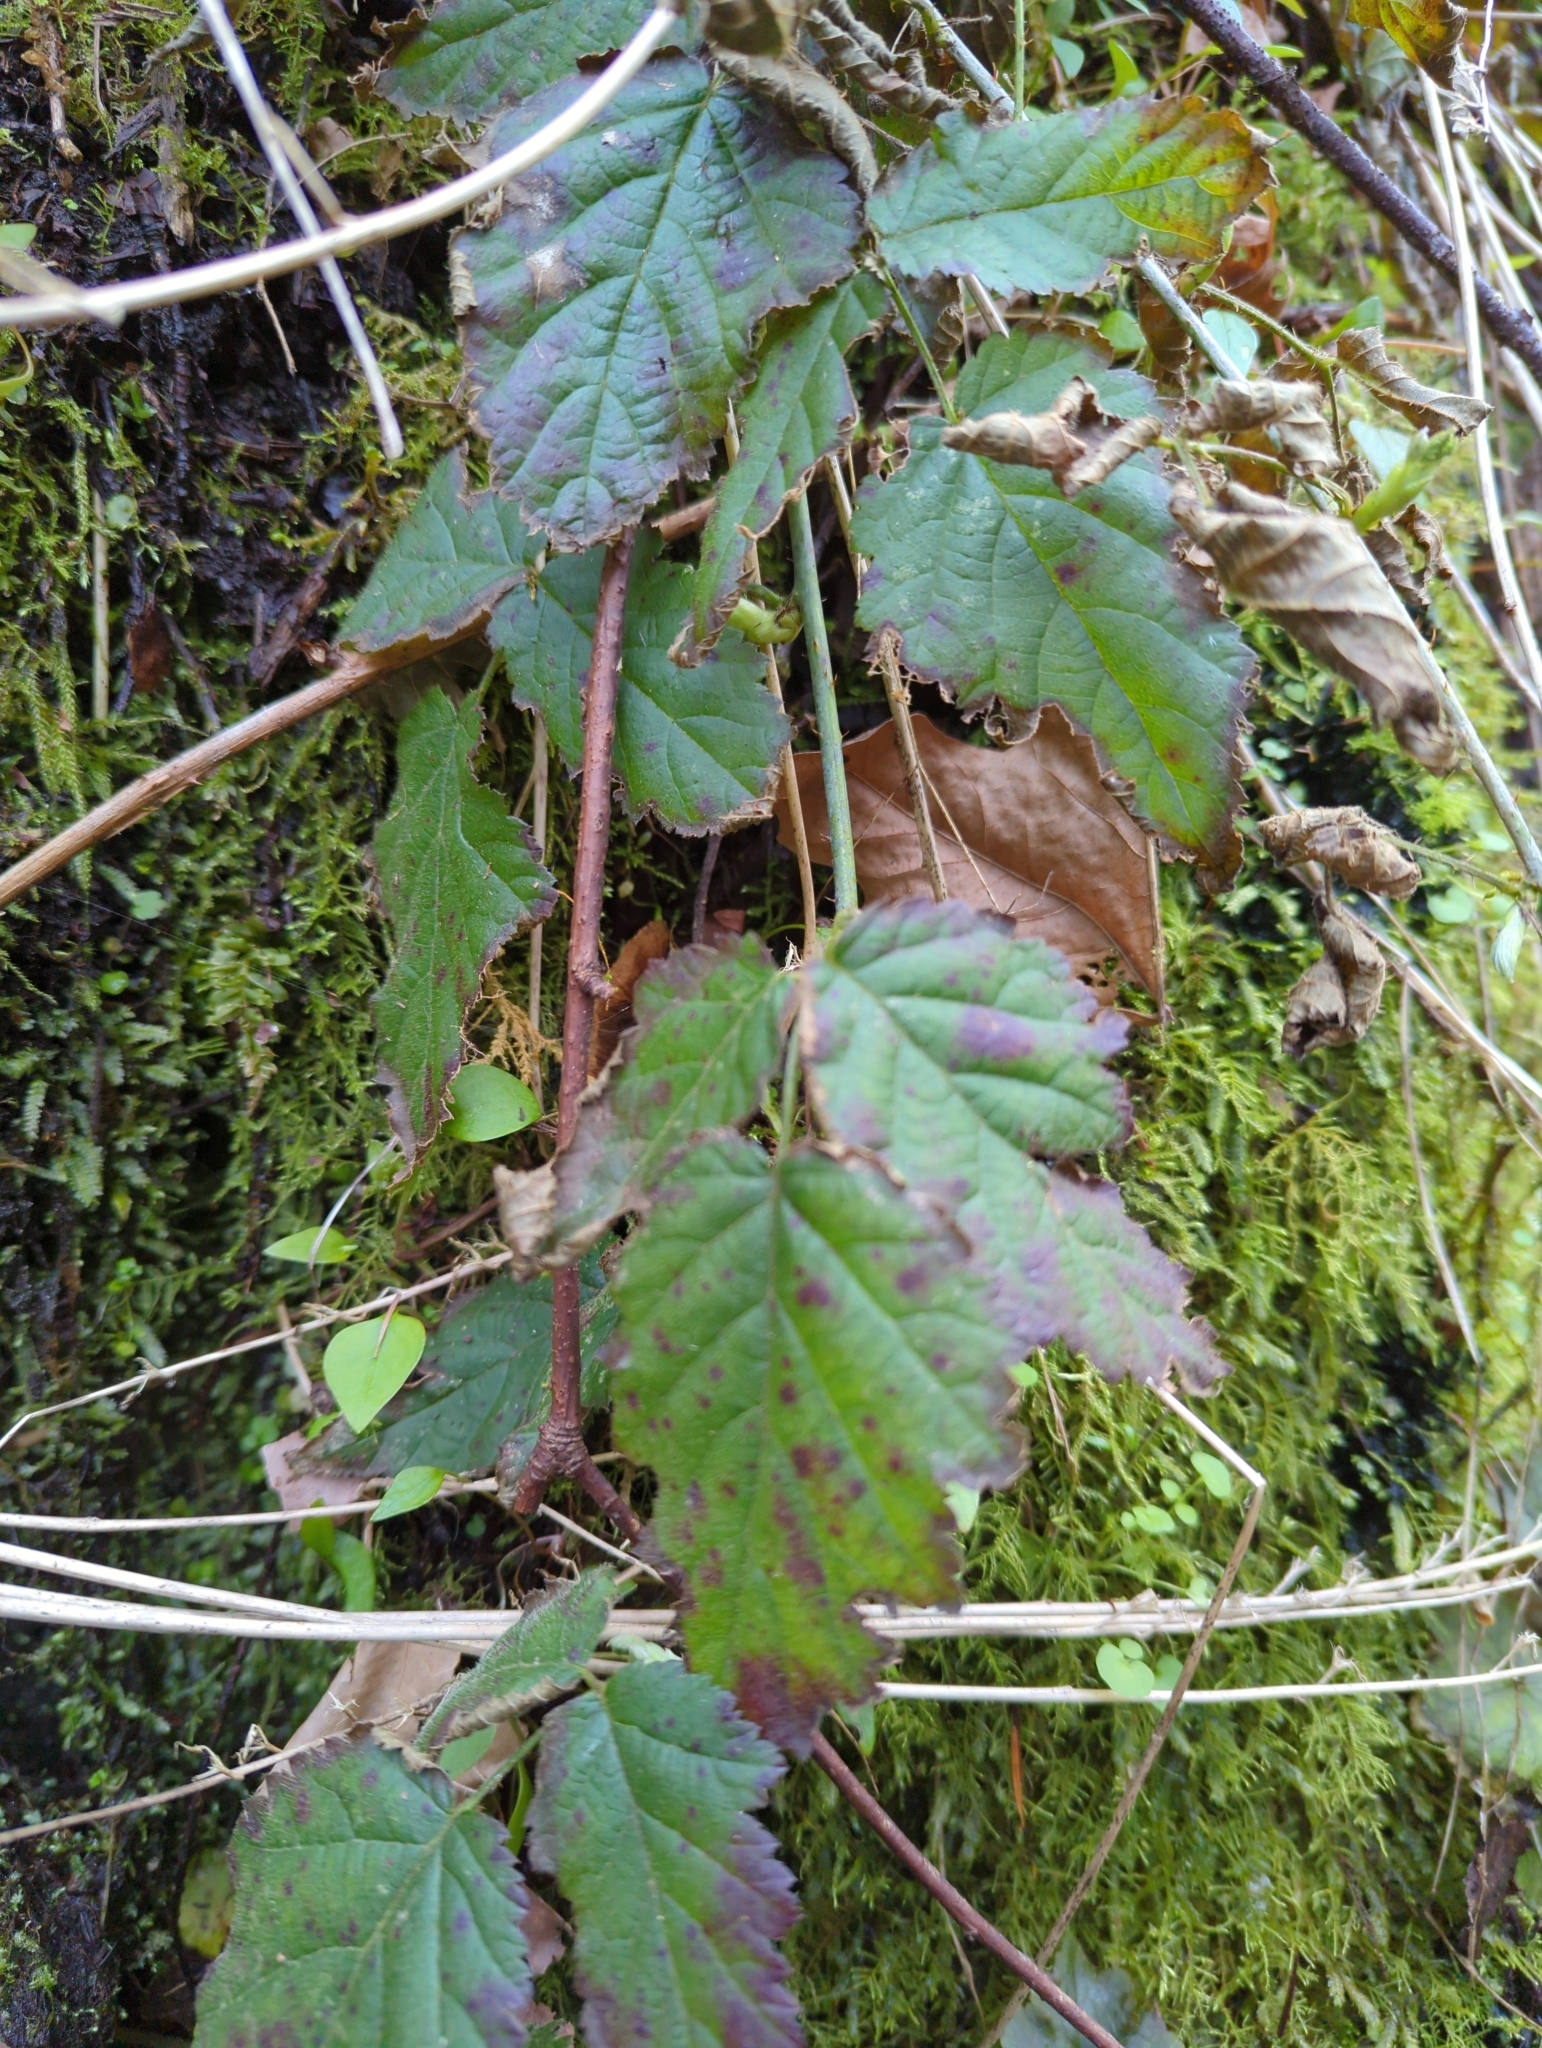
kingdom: Plantae
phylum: Tracheophyta
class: Magnoliopsida
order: Rosales
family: Rosaceae
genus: Rubus
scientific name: Rubus ursinus
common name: Pacific blackberry
